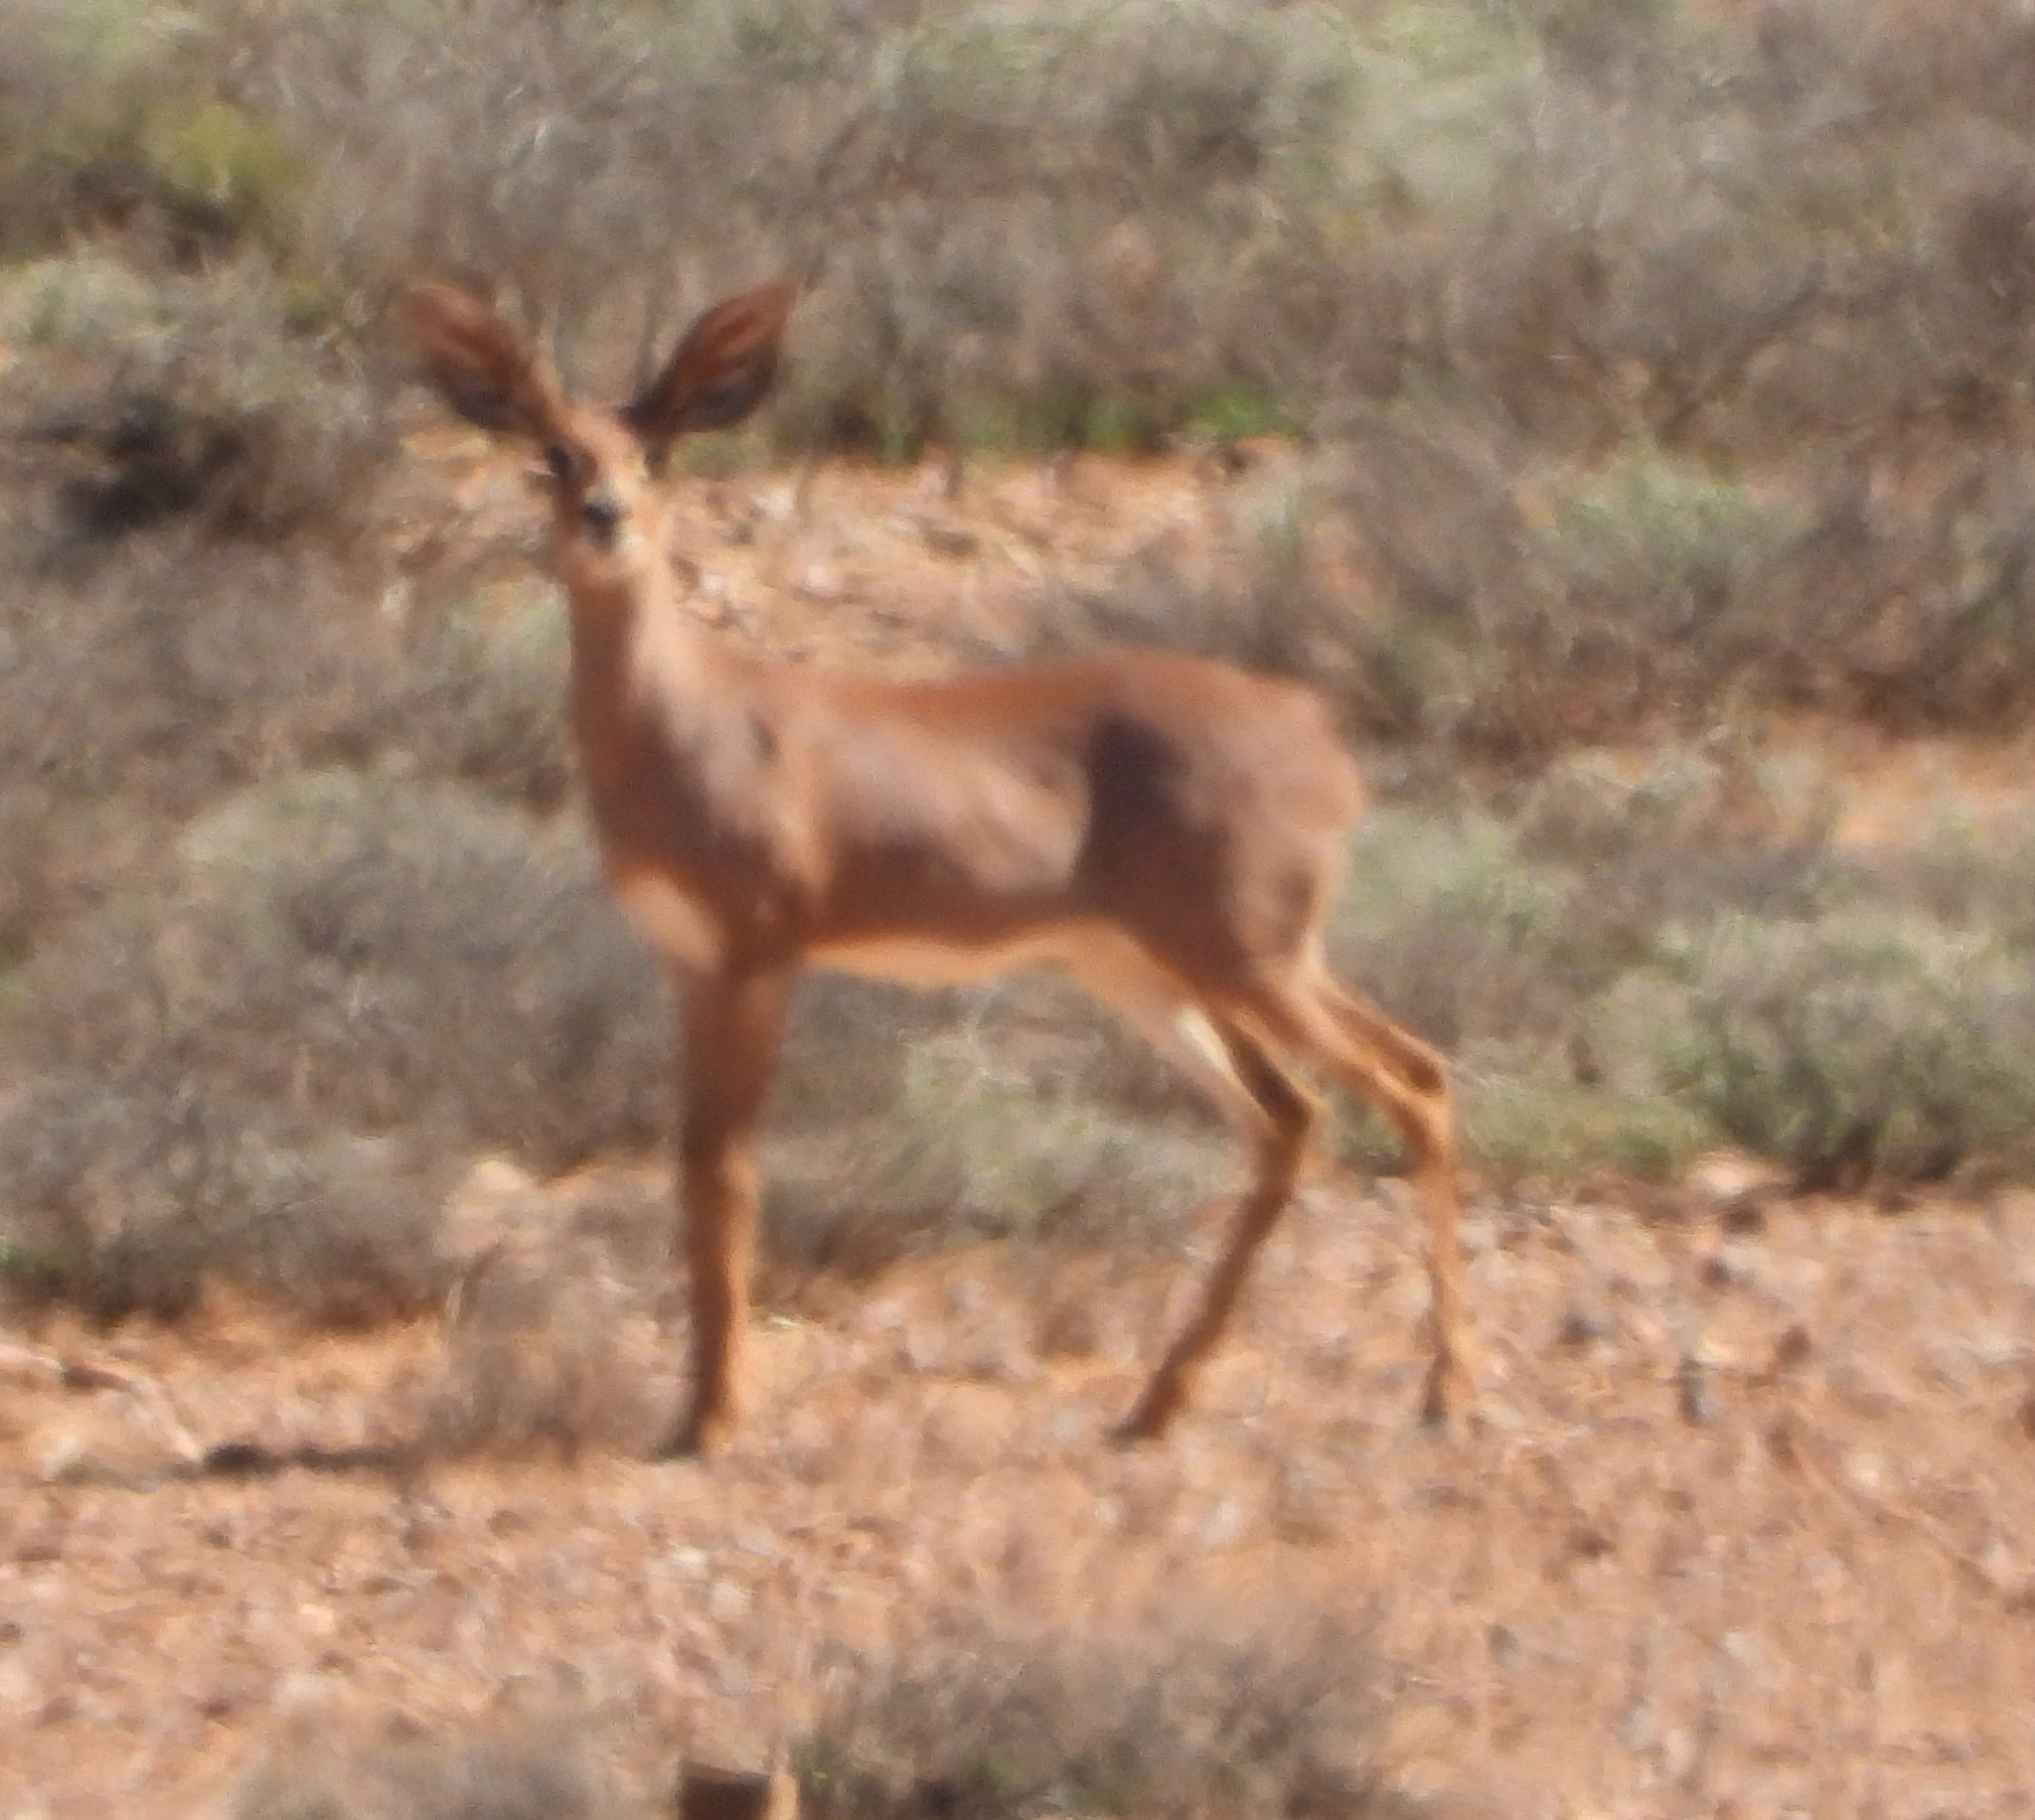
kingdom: Animalia
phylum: Chordata
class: Mammalia
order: Artiodactyla
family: Bovidae
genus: Raphicerus
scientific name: Raphicerus campestris
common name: Steenbok
